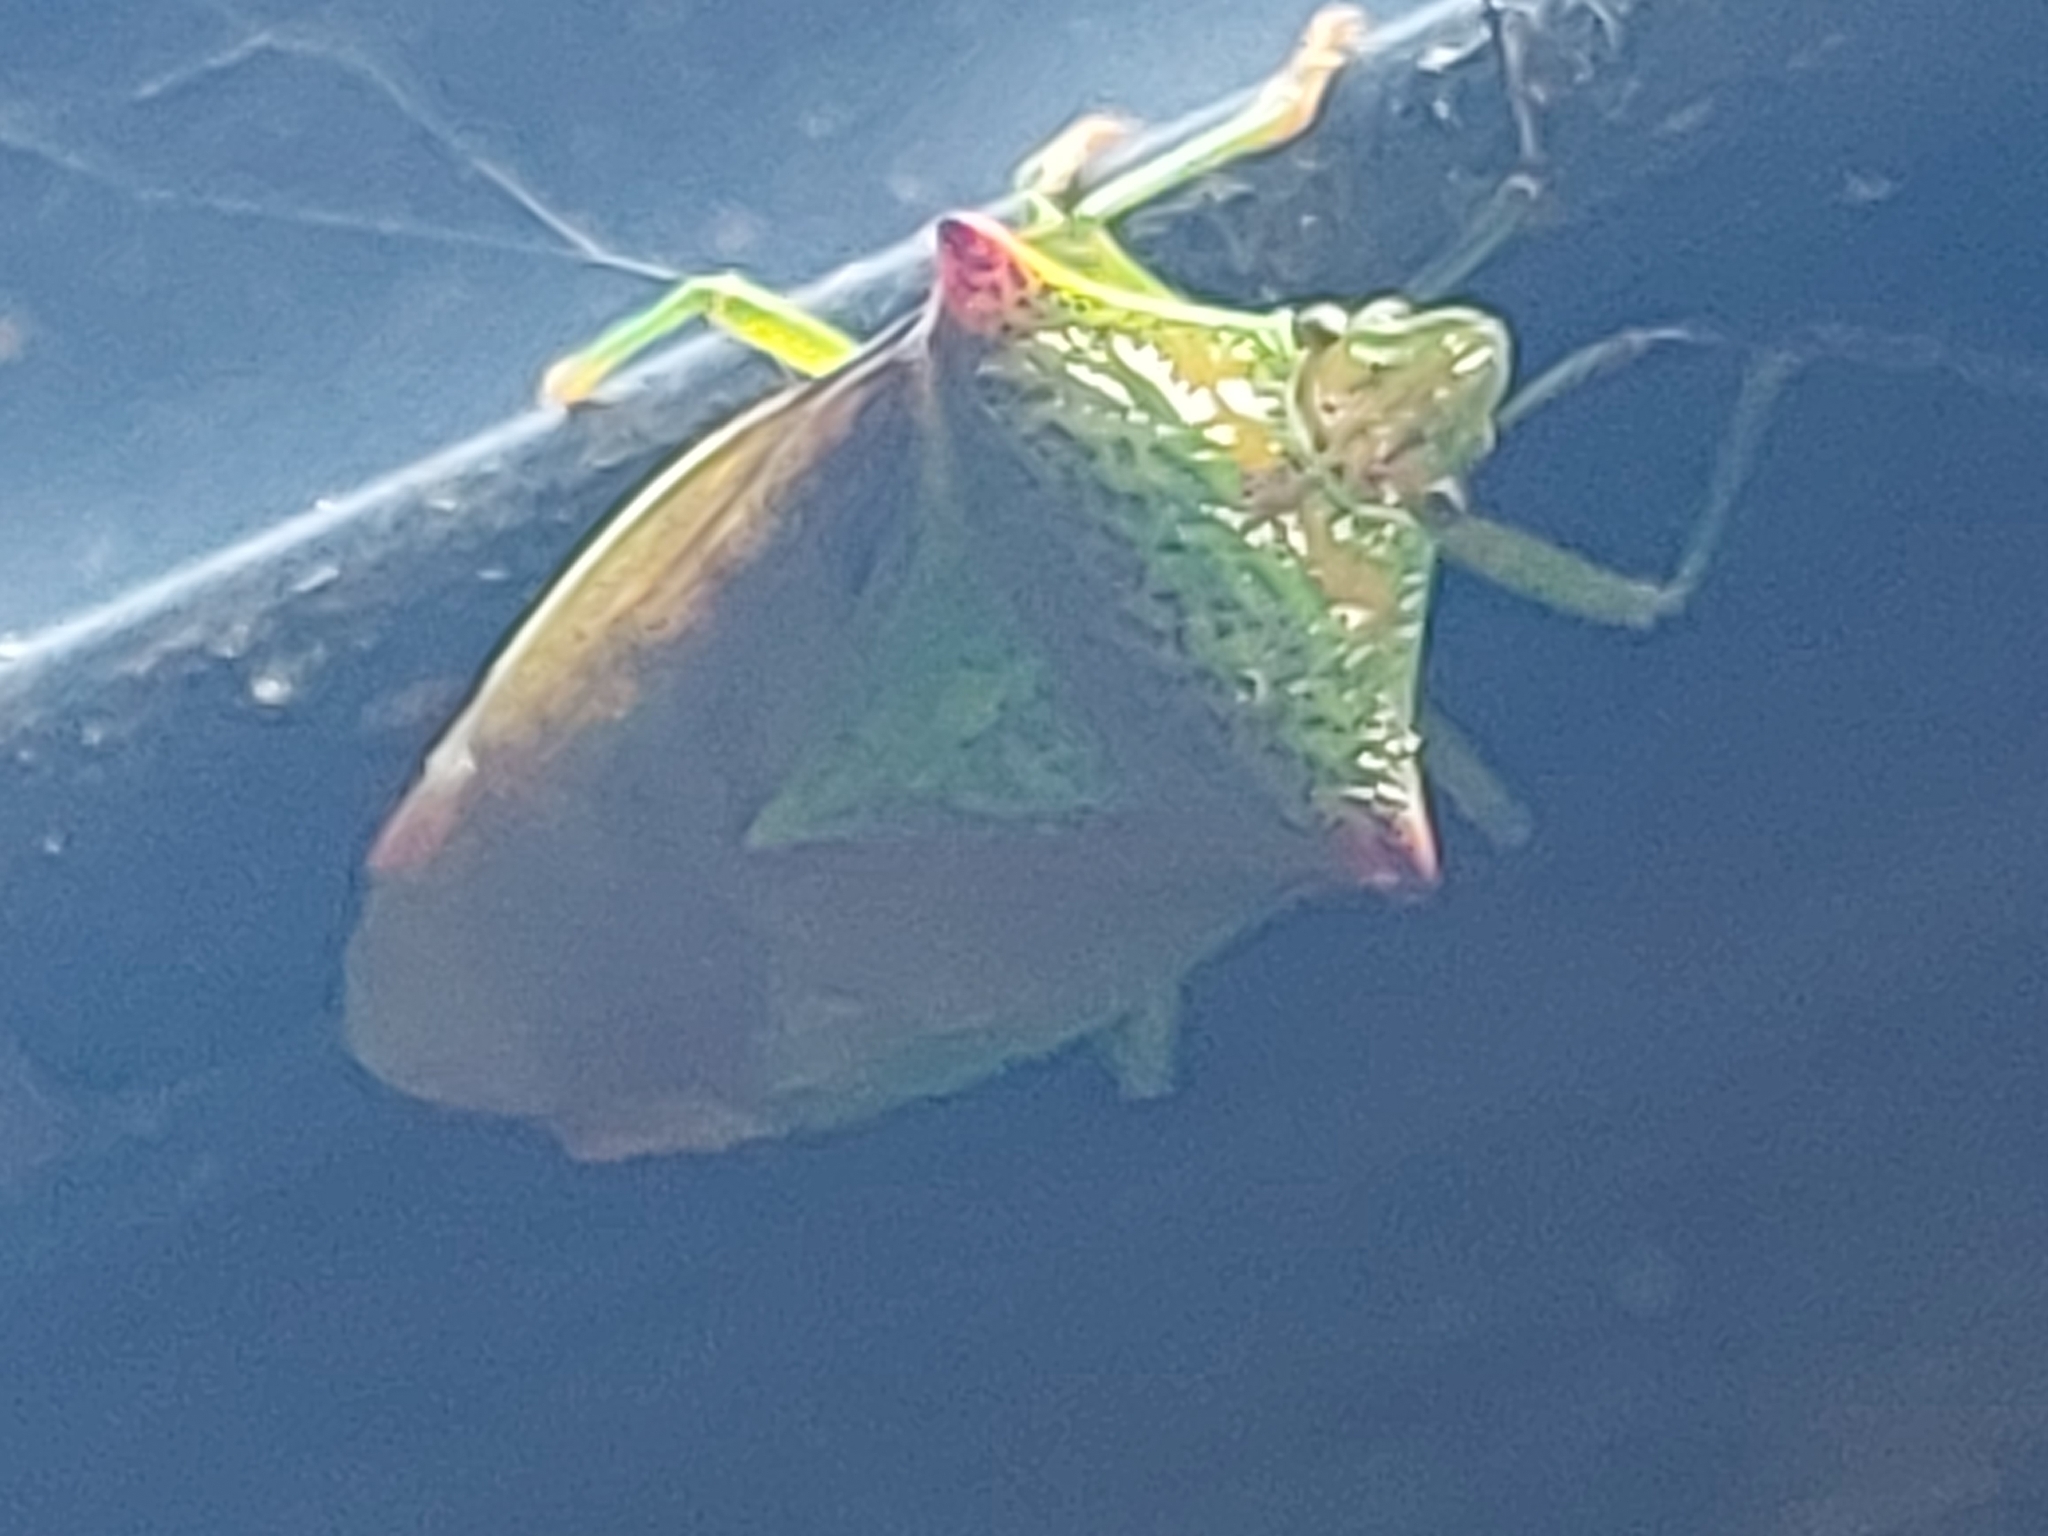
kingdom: Animalia
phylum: Arthropoda
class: Insecta
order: Hemiptera
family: Acanthosomatidae
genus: Acanthosoma
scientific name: Acanthosoma haemorrhoidale
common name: Hawthorn shieldbug
